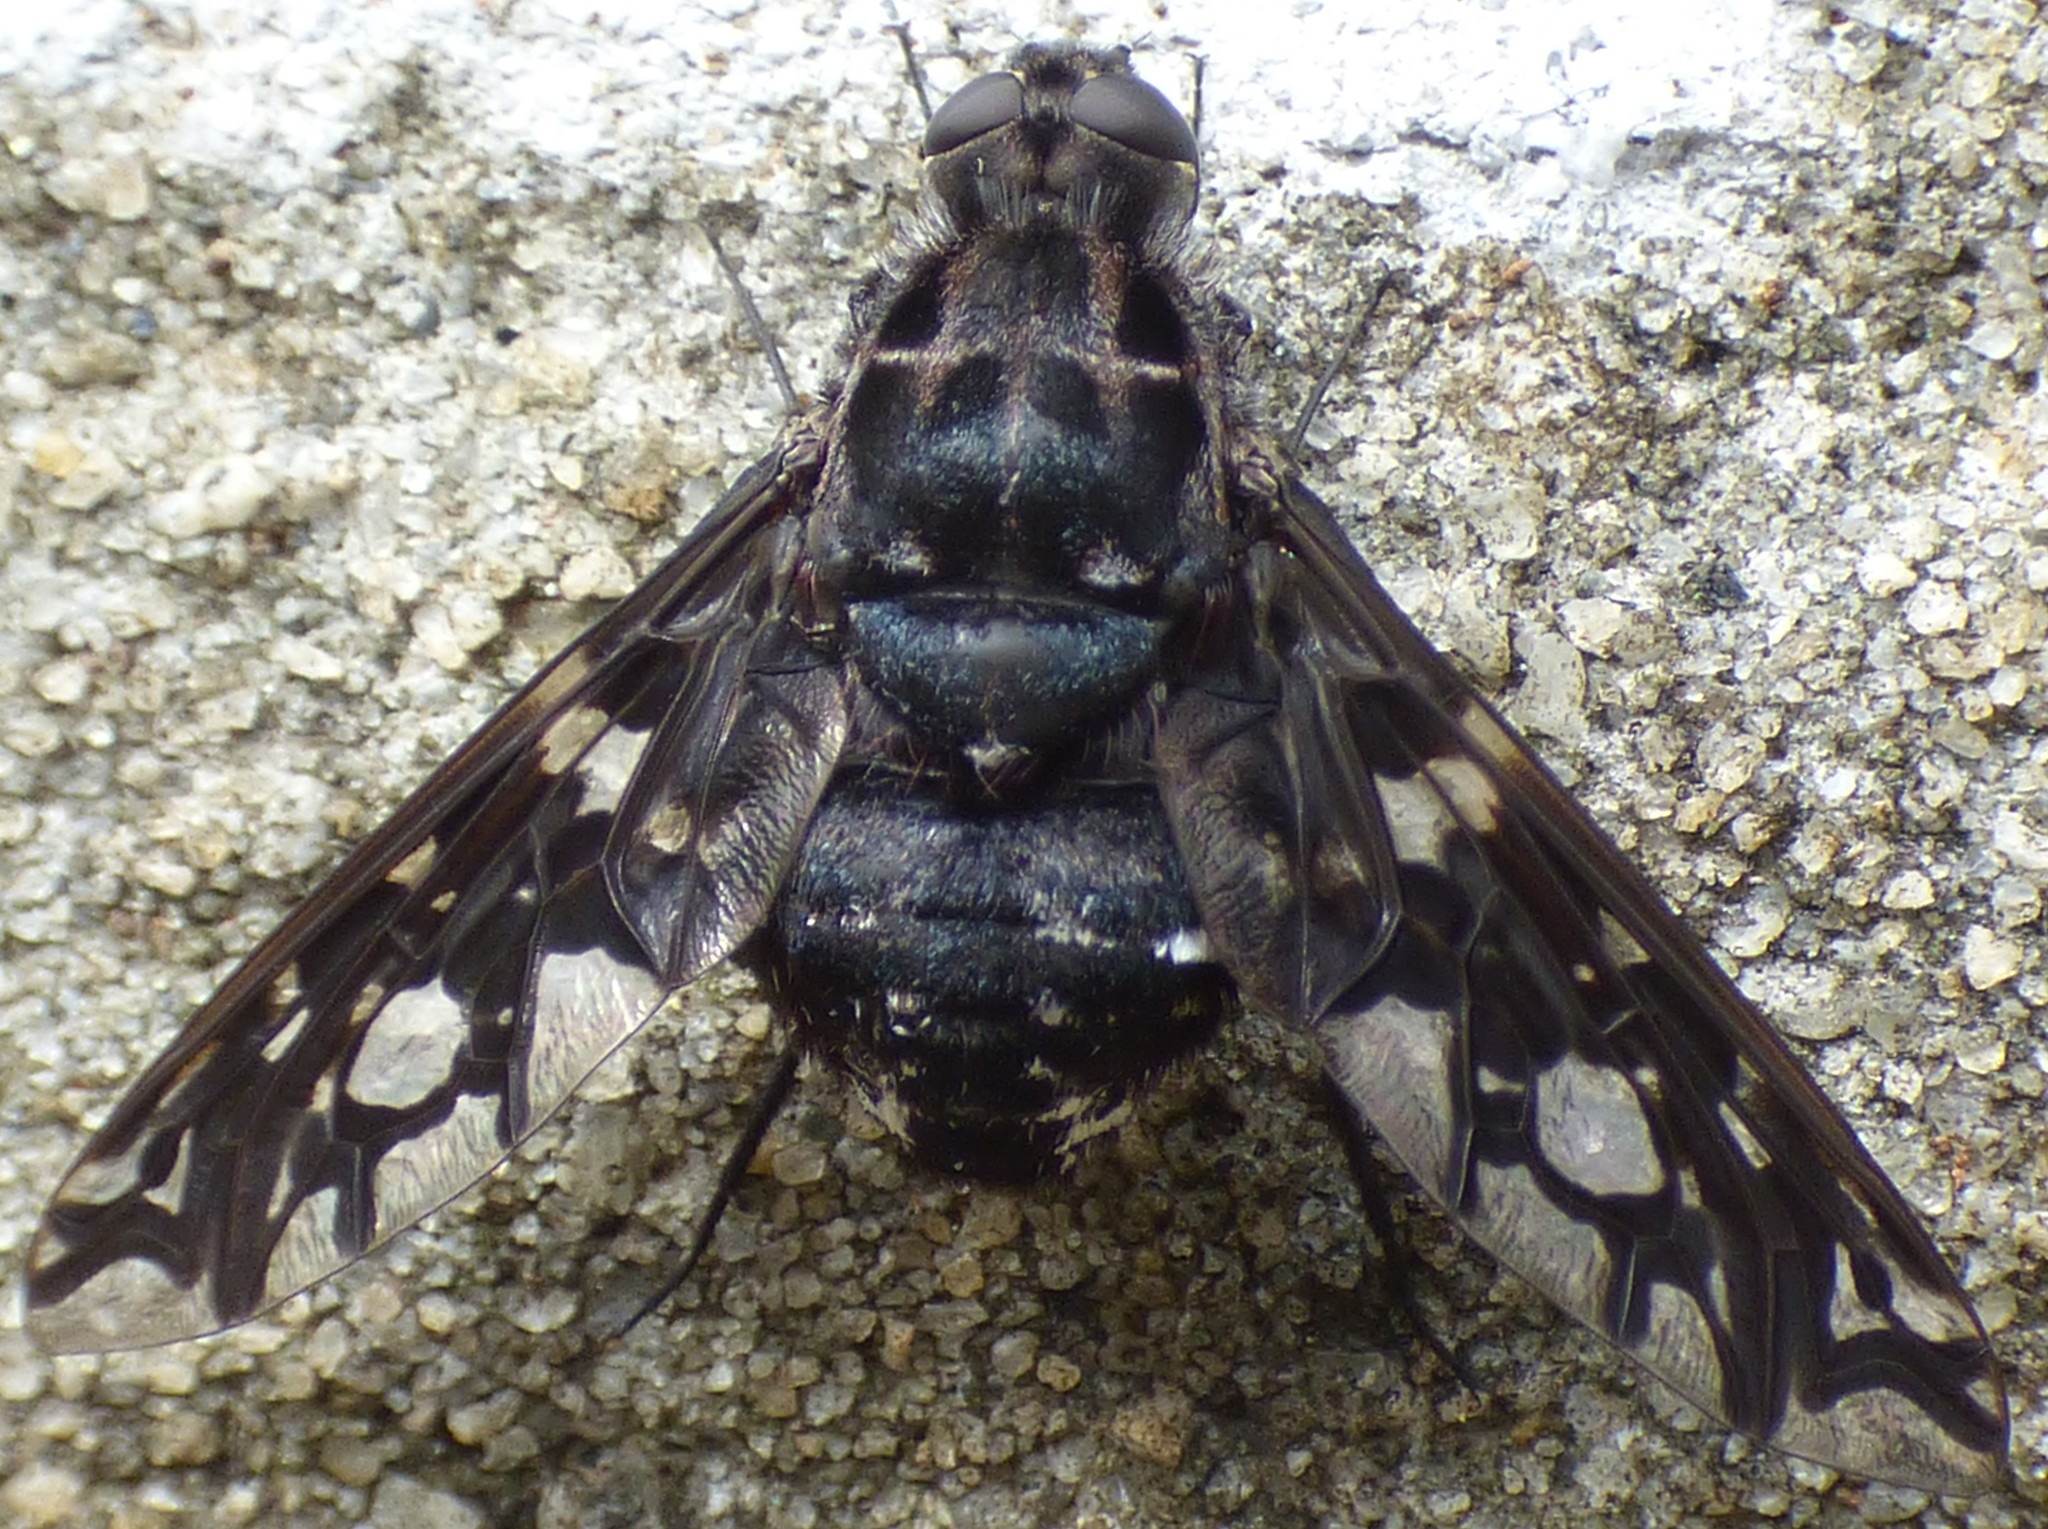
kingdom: Animalia
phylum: Arthropoda
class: Insecta
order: Diptera
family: Bombyliidae
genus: Xenox
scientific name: Xenox tigrinus
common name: Tiger bee fly
